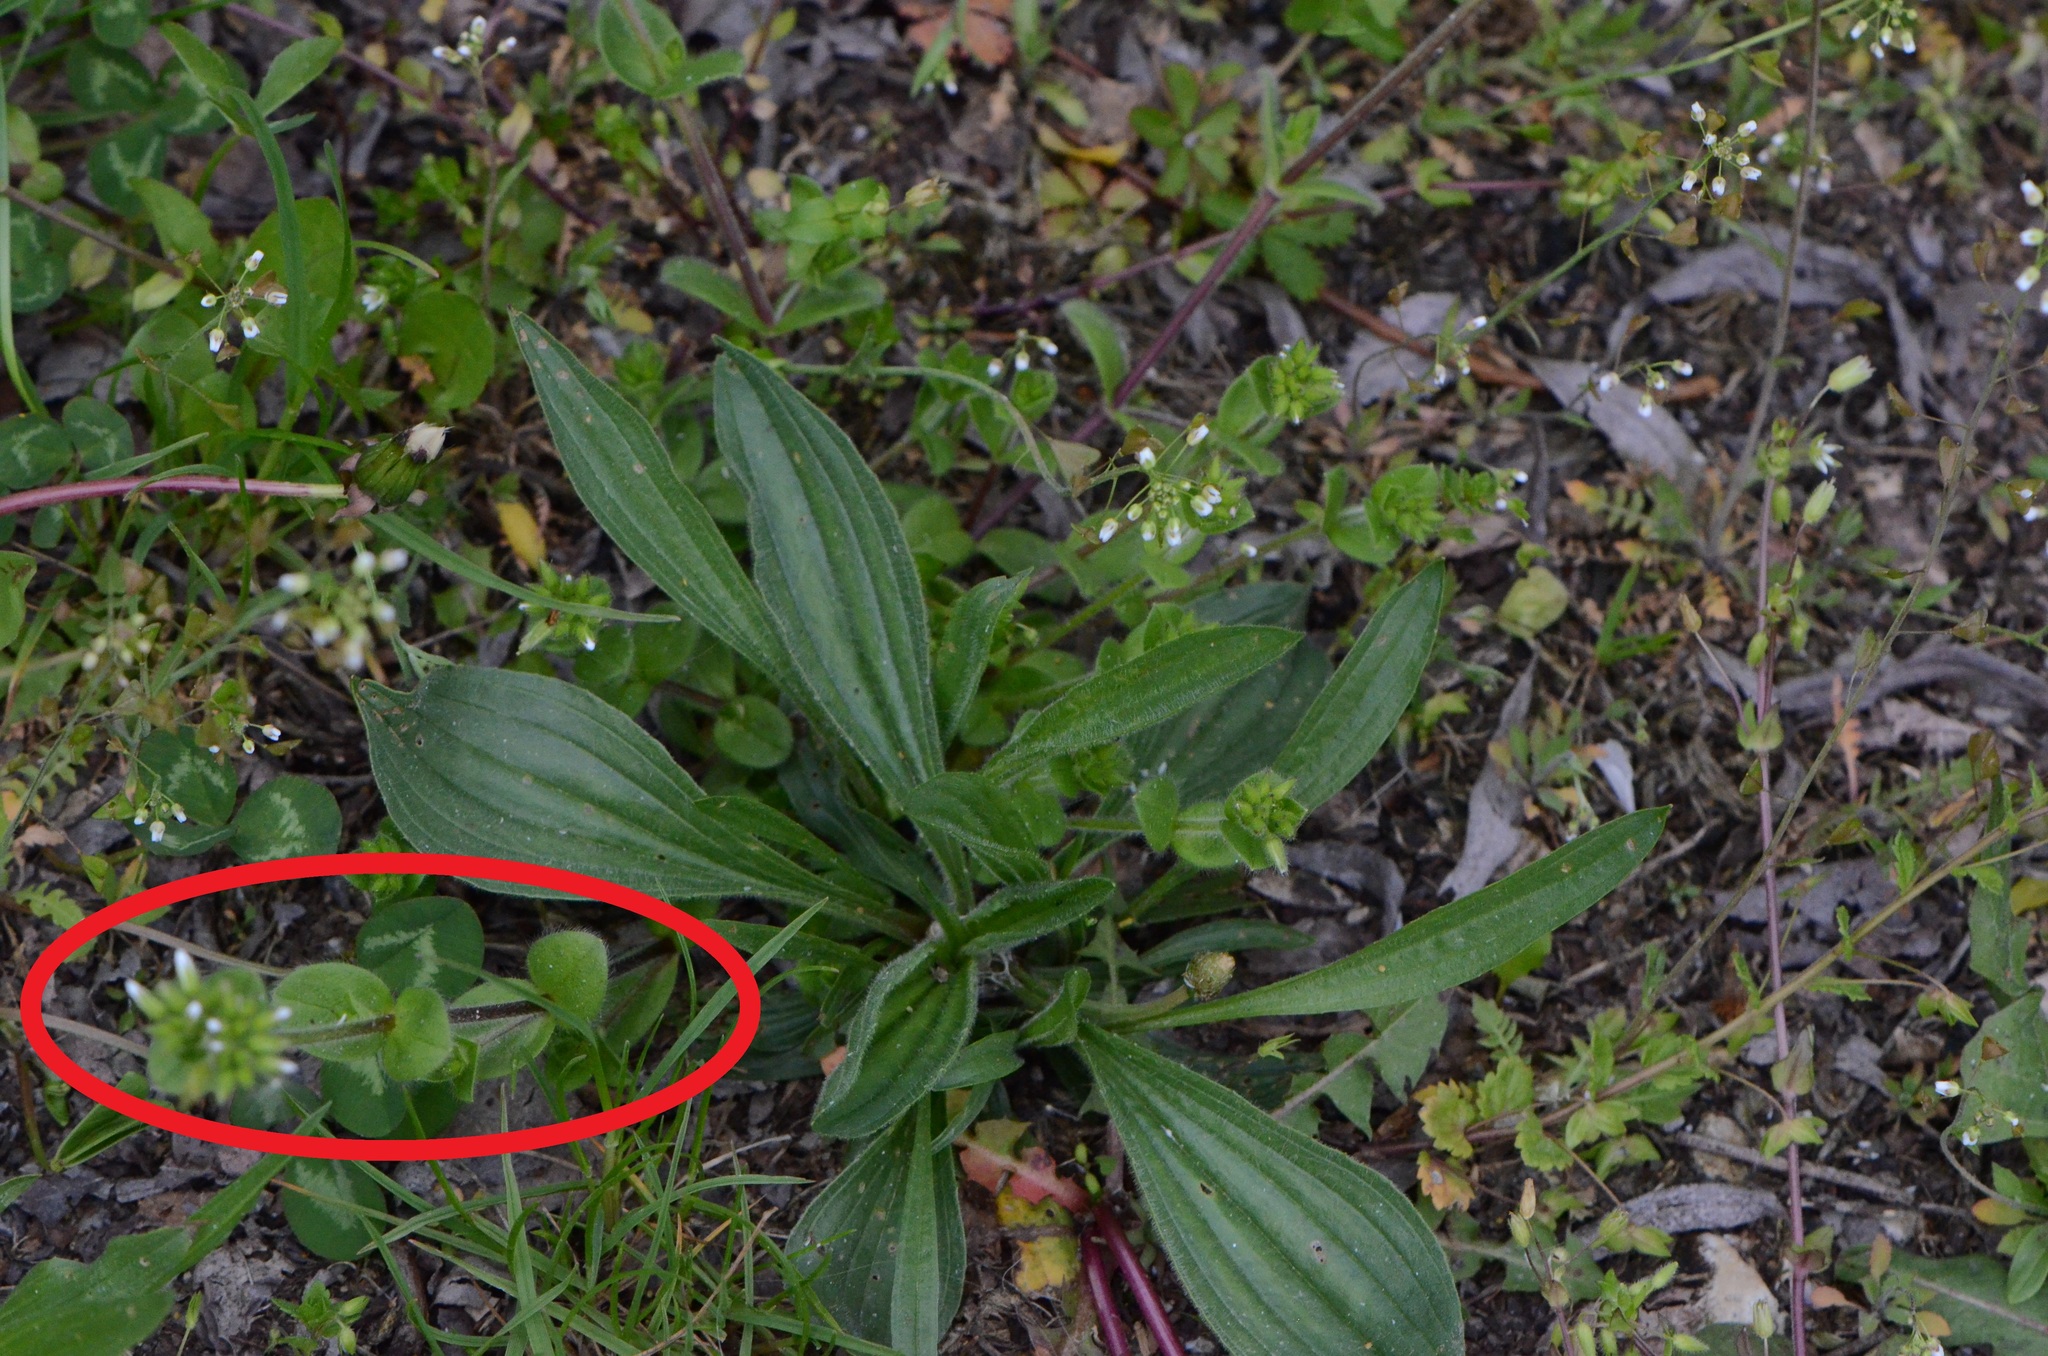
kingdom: Plantae
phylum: Tracheophyta
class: Magnoliopsida
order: Caryophyllales
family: Caryophyllaceae
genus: Cerastium
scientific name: Cerastium glomeratum
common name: Sticky chickweed
